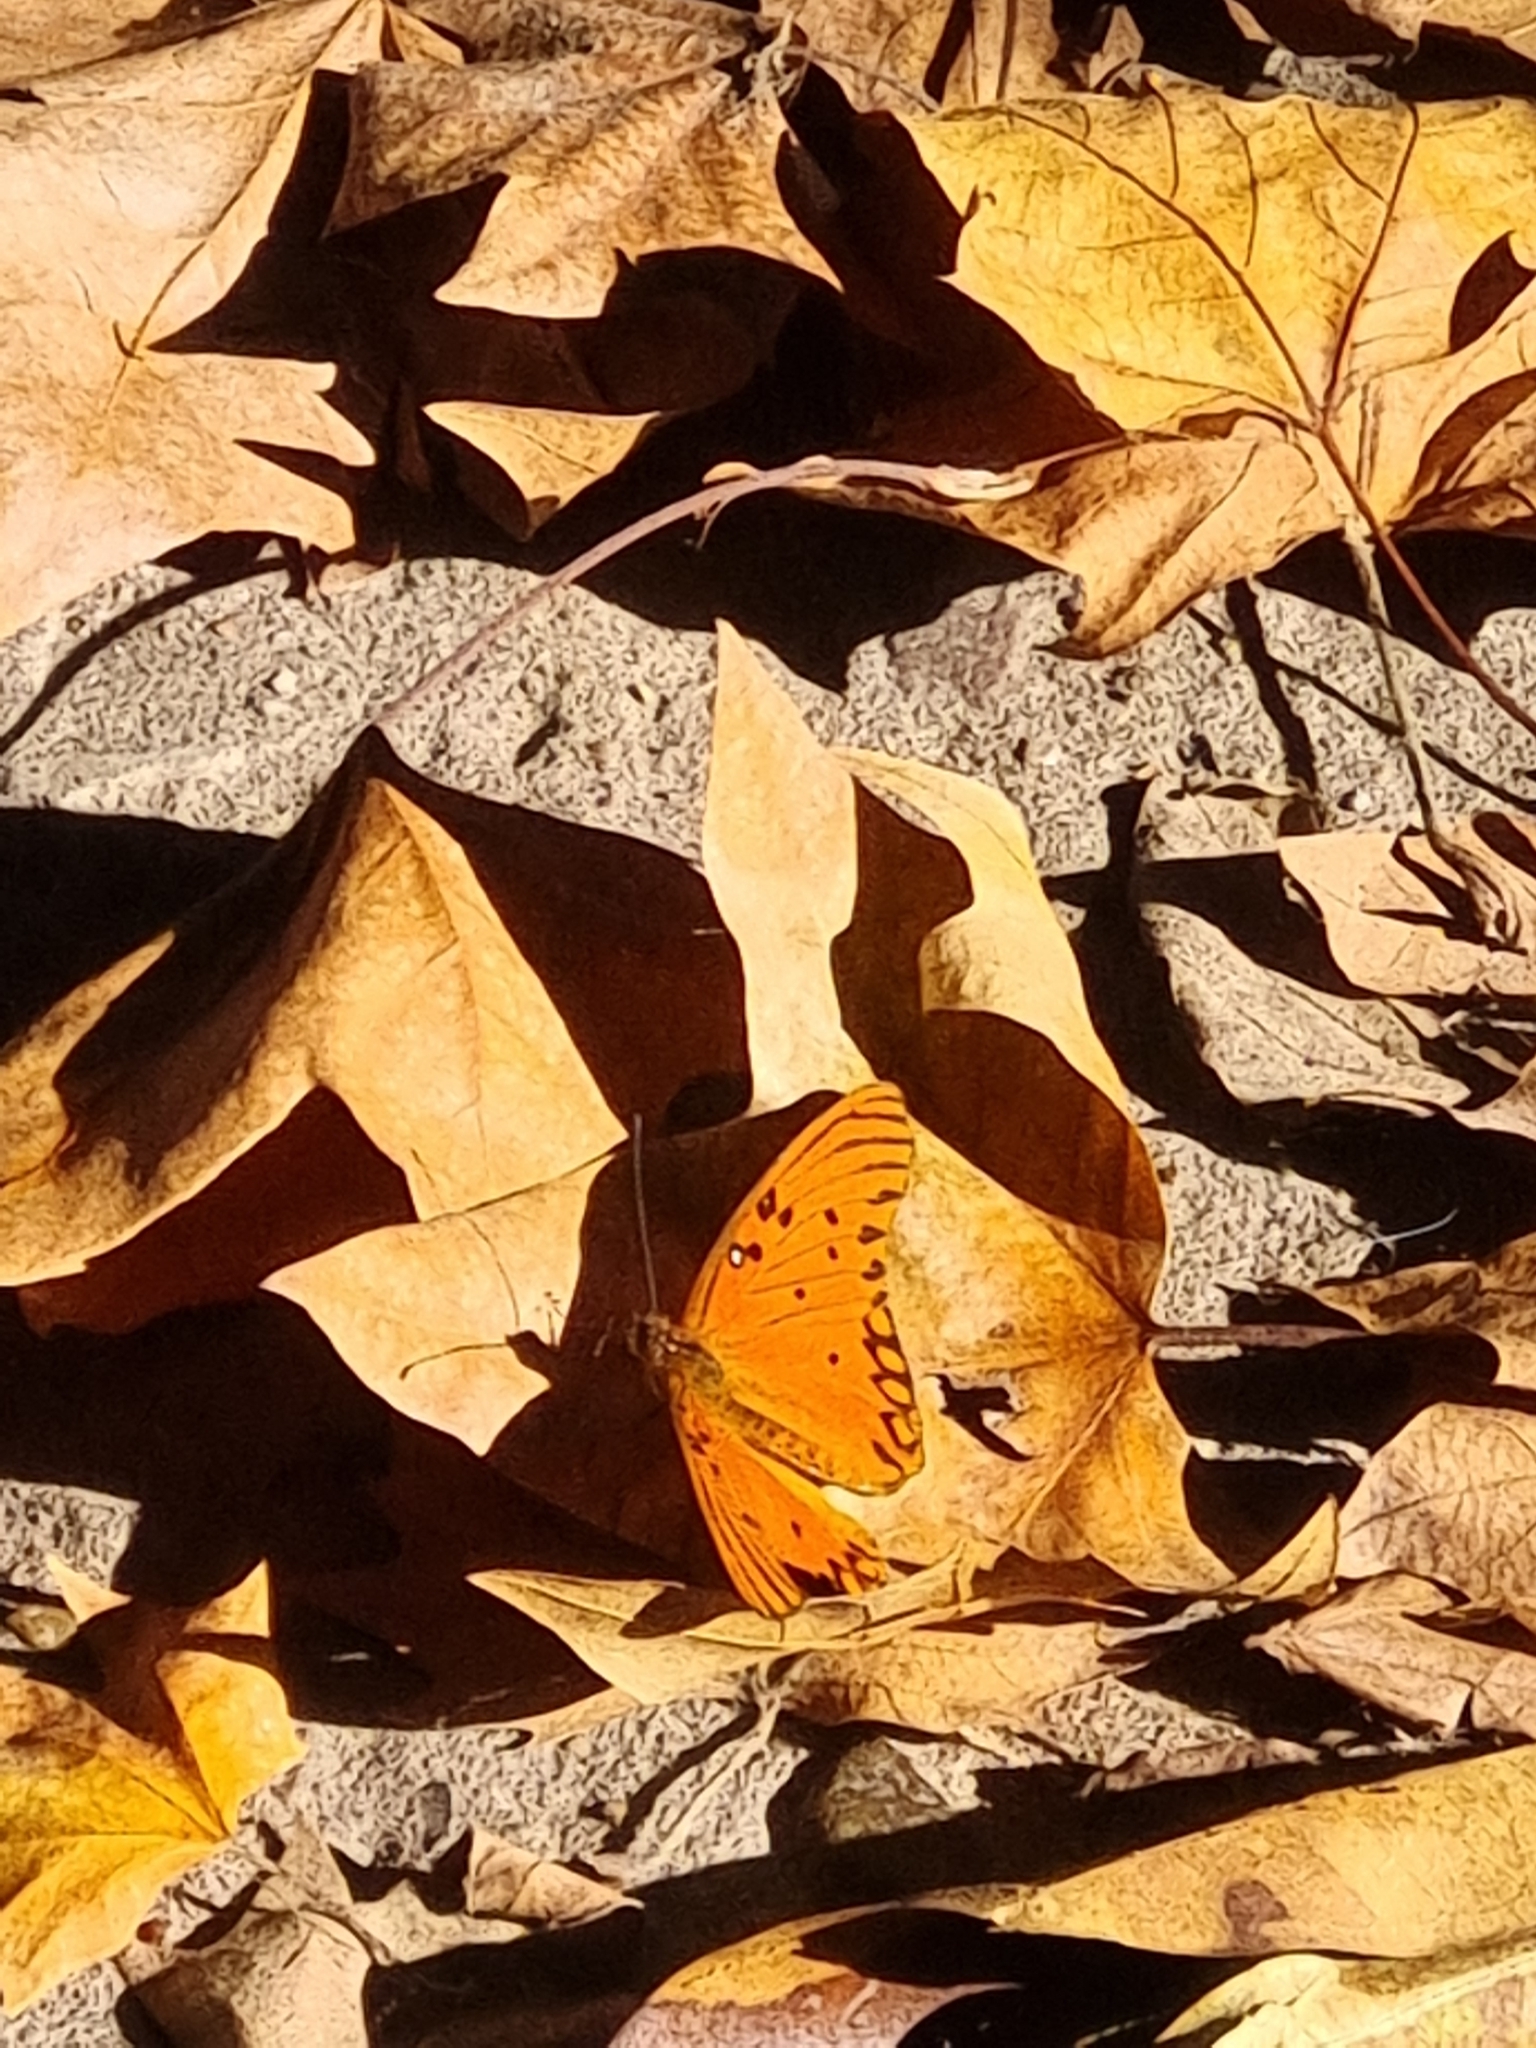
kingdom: Animalia
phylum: Arthropoda
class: Insecta
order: Lepidoptera
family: Nymphalidae
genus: Dione
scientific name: Dione vanillae
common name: Gulf fritillary
